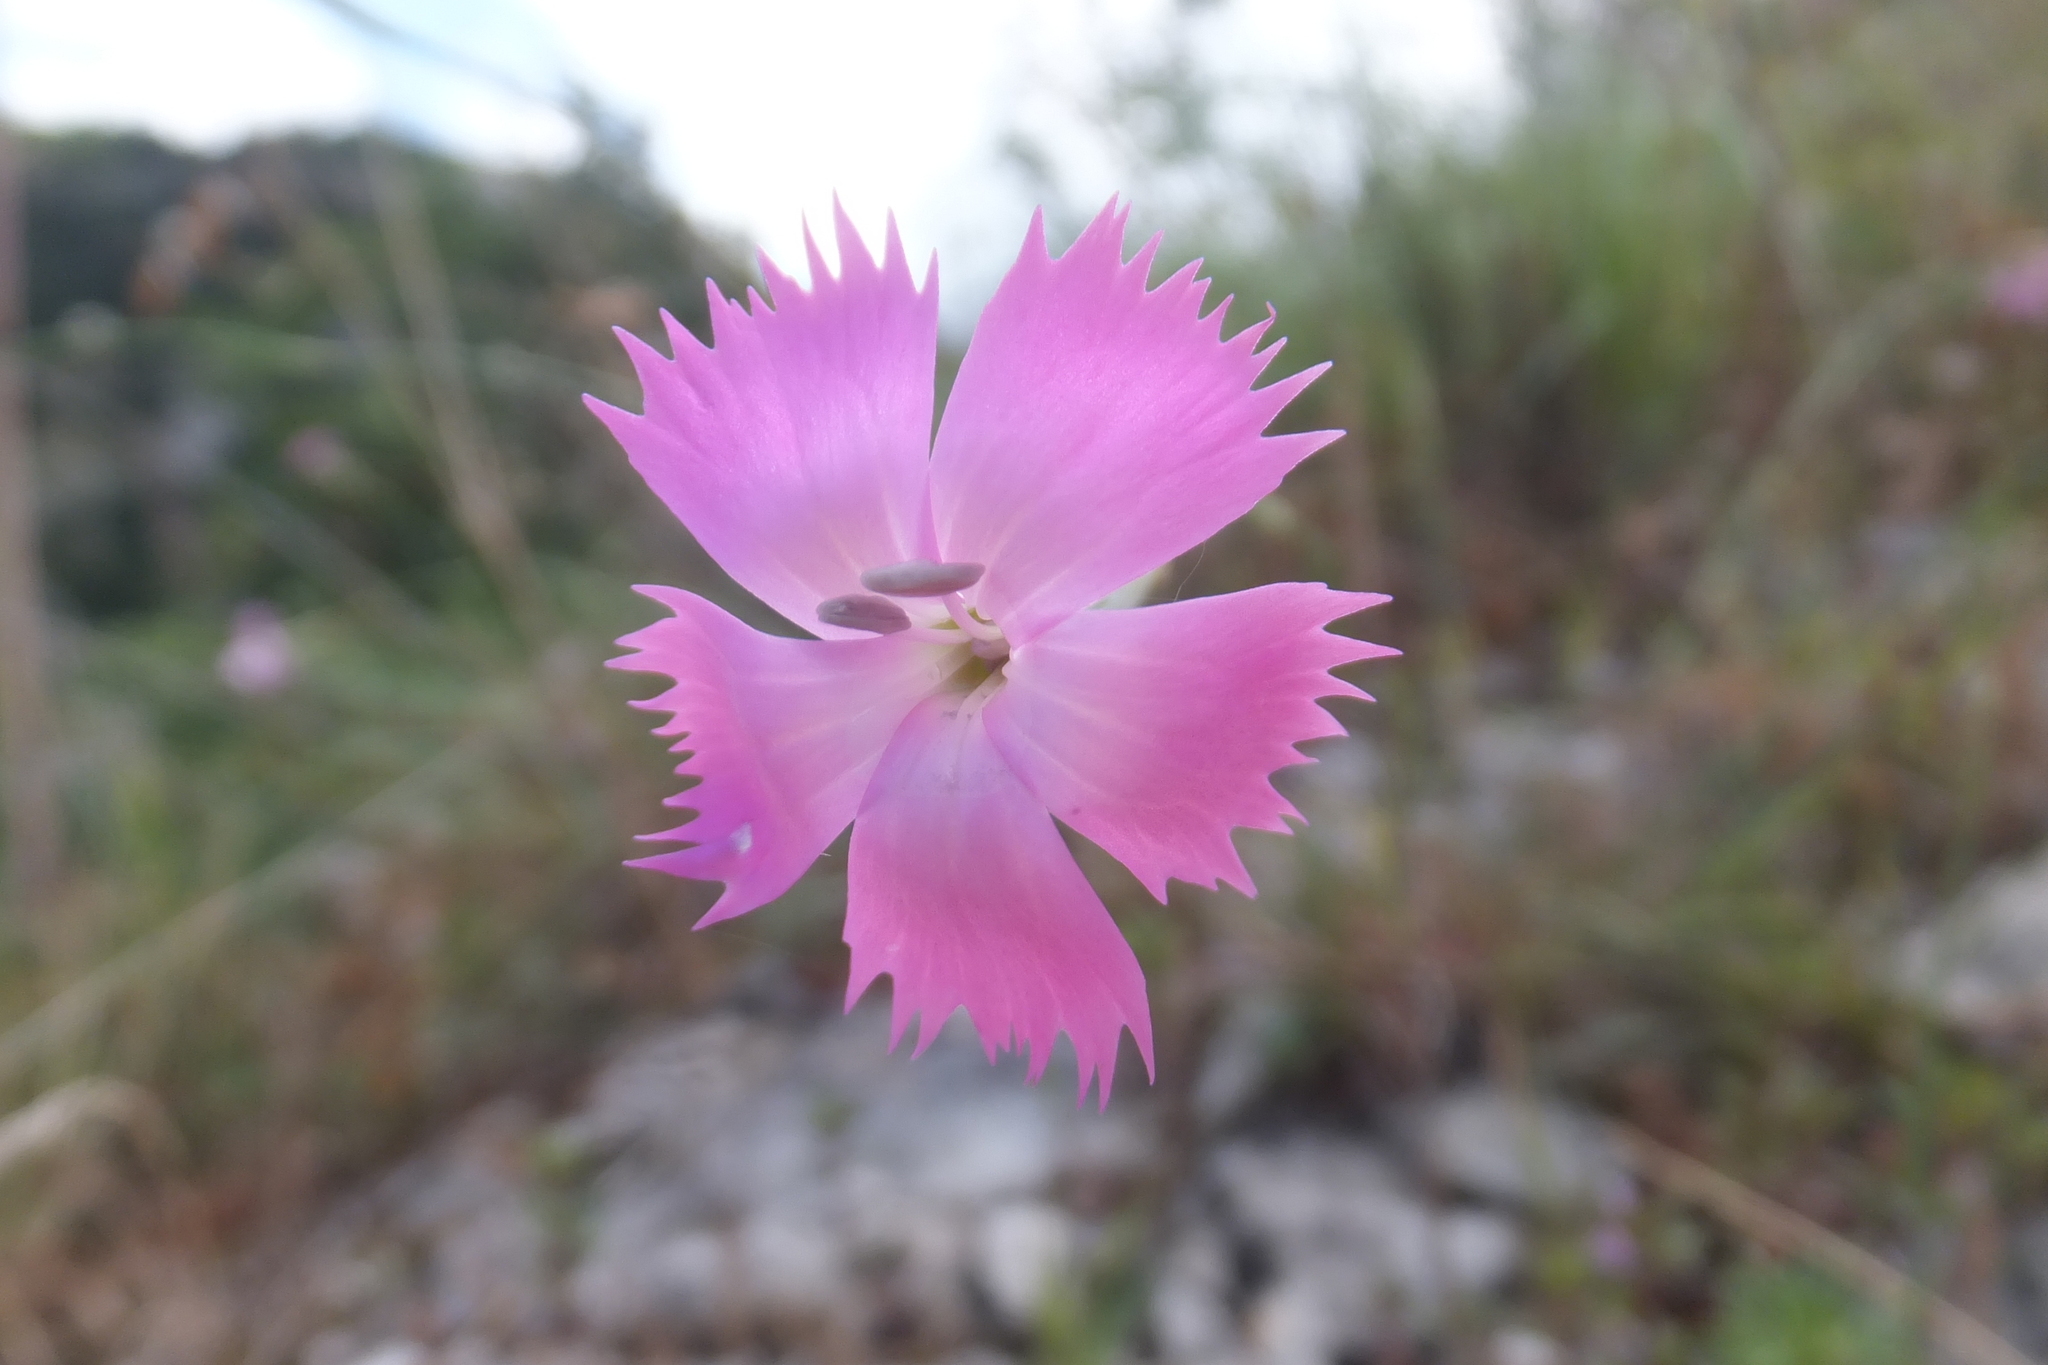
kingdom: Plantae
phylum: Tracheophyta
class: Magnoliopsida
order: Caryophyllales
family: Caryophyllaceae
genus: Dianthus
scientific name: Dianthus brachycalyx
